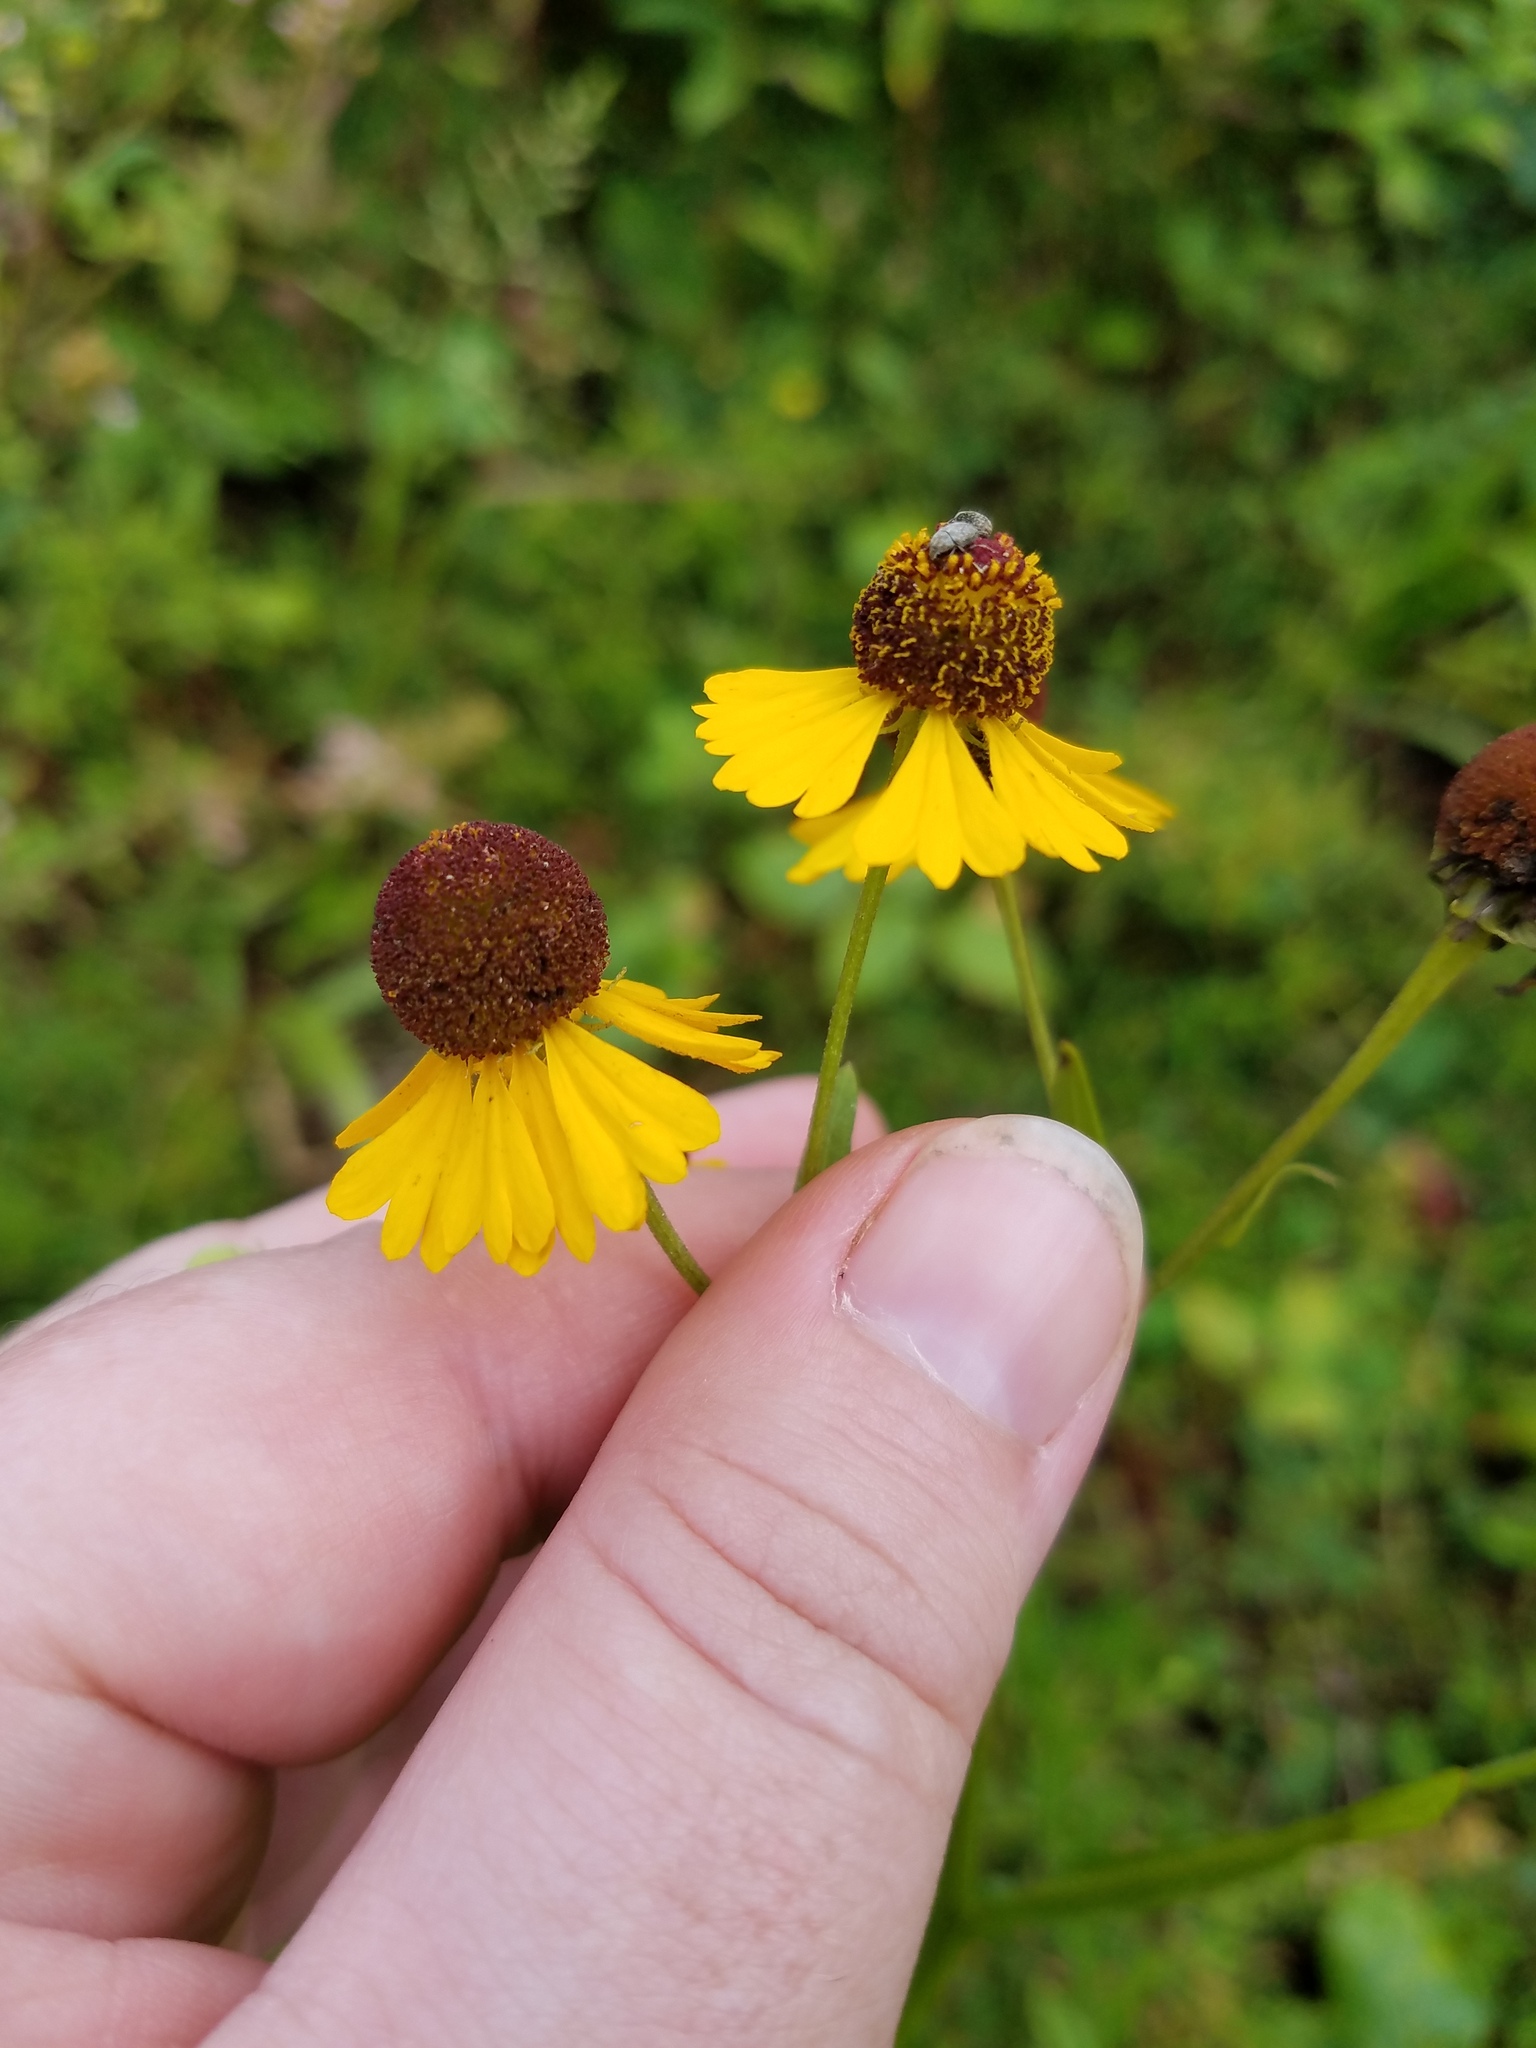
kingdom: Plantae
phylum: Tracheophyta
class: Magnoliopsida
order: Asterales
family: Asteraceae
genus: Helenium
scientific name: Helenium flexuosum
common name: Naked-flowered sneezeweed
